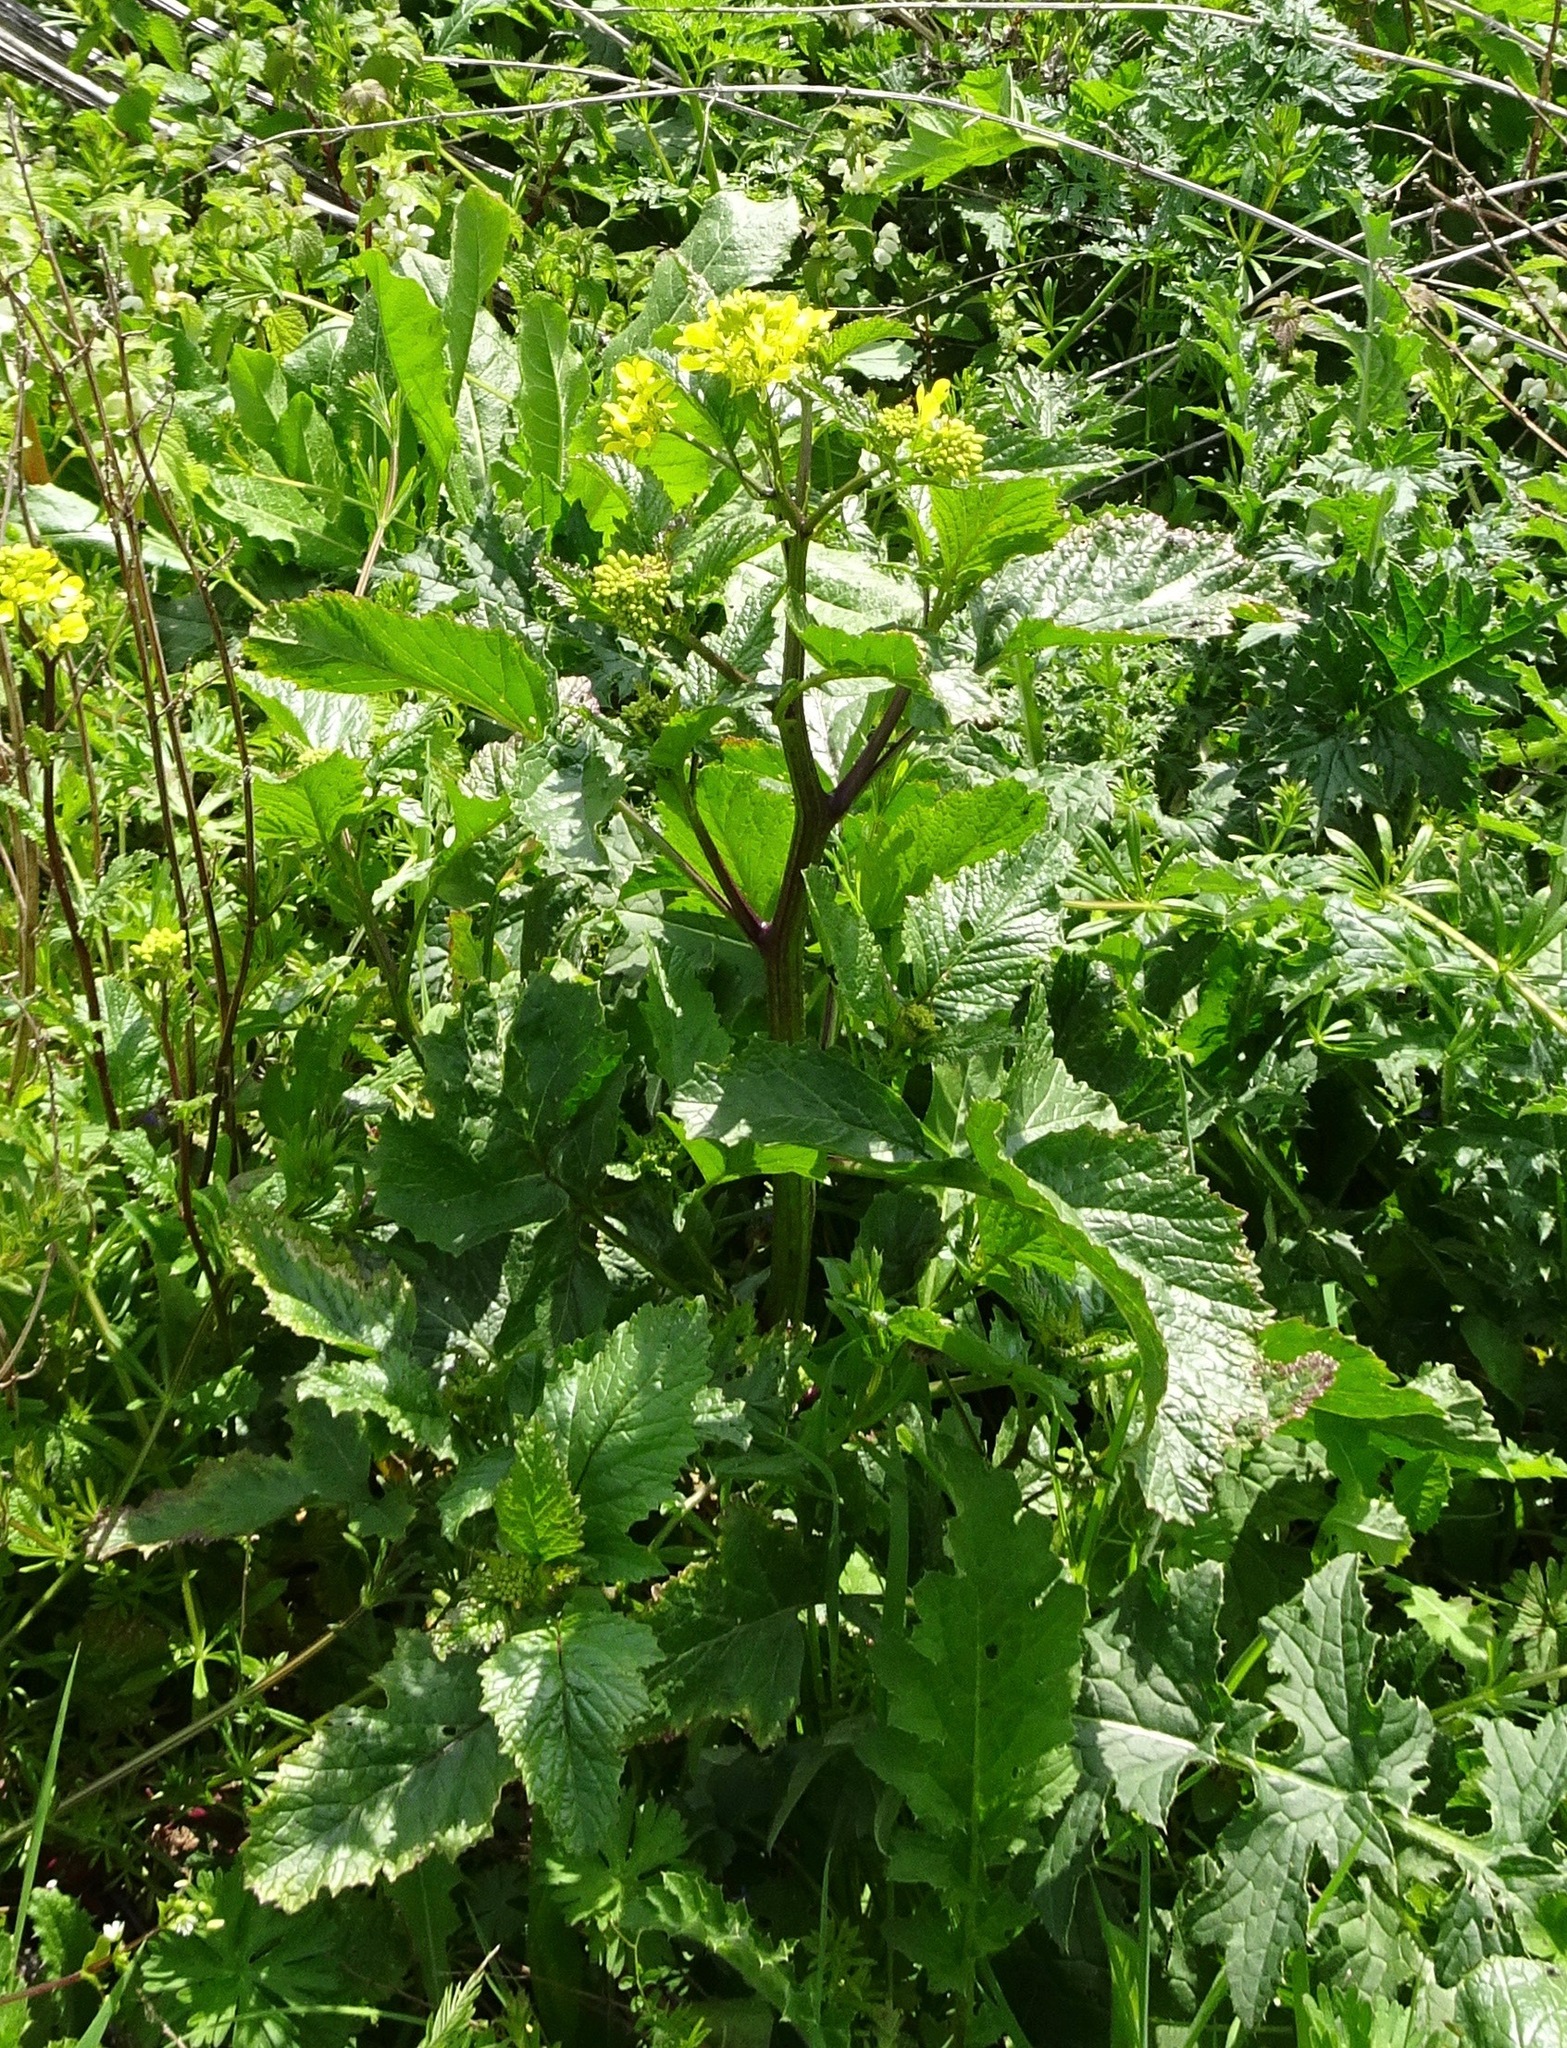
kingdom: Plantae
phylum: Tracheophyta
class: Magnoliopsida
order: Brassicales
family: Brassicaceae
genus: Sinapis
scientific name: Sinapis arvensis
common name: Charlock
